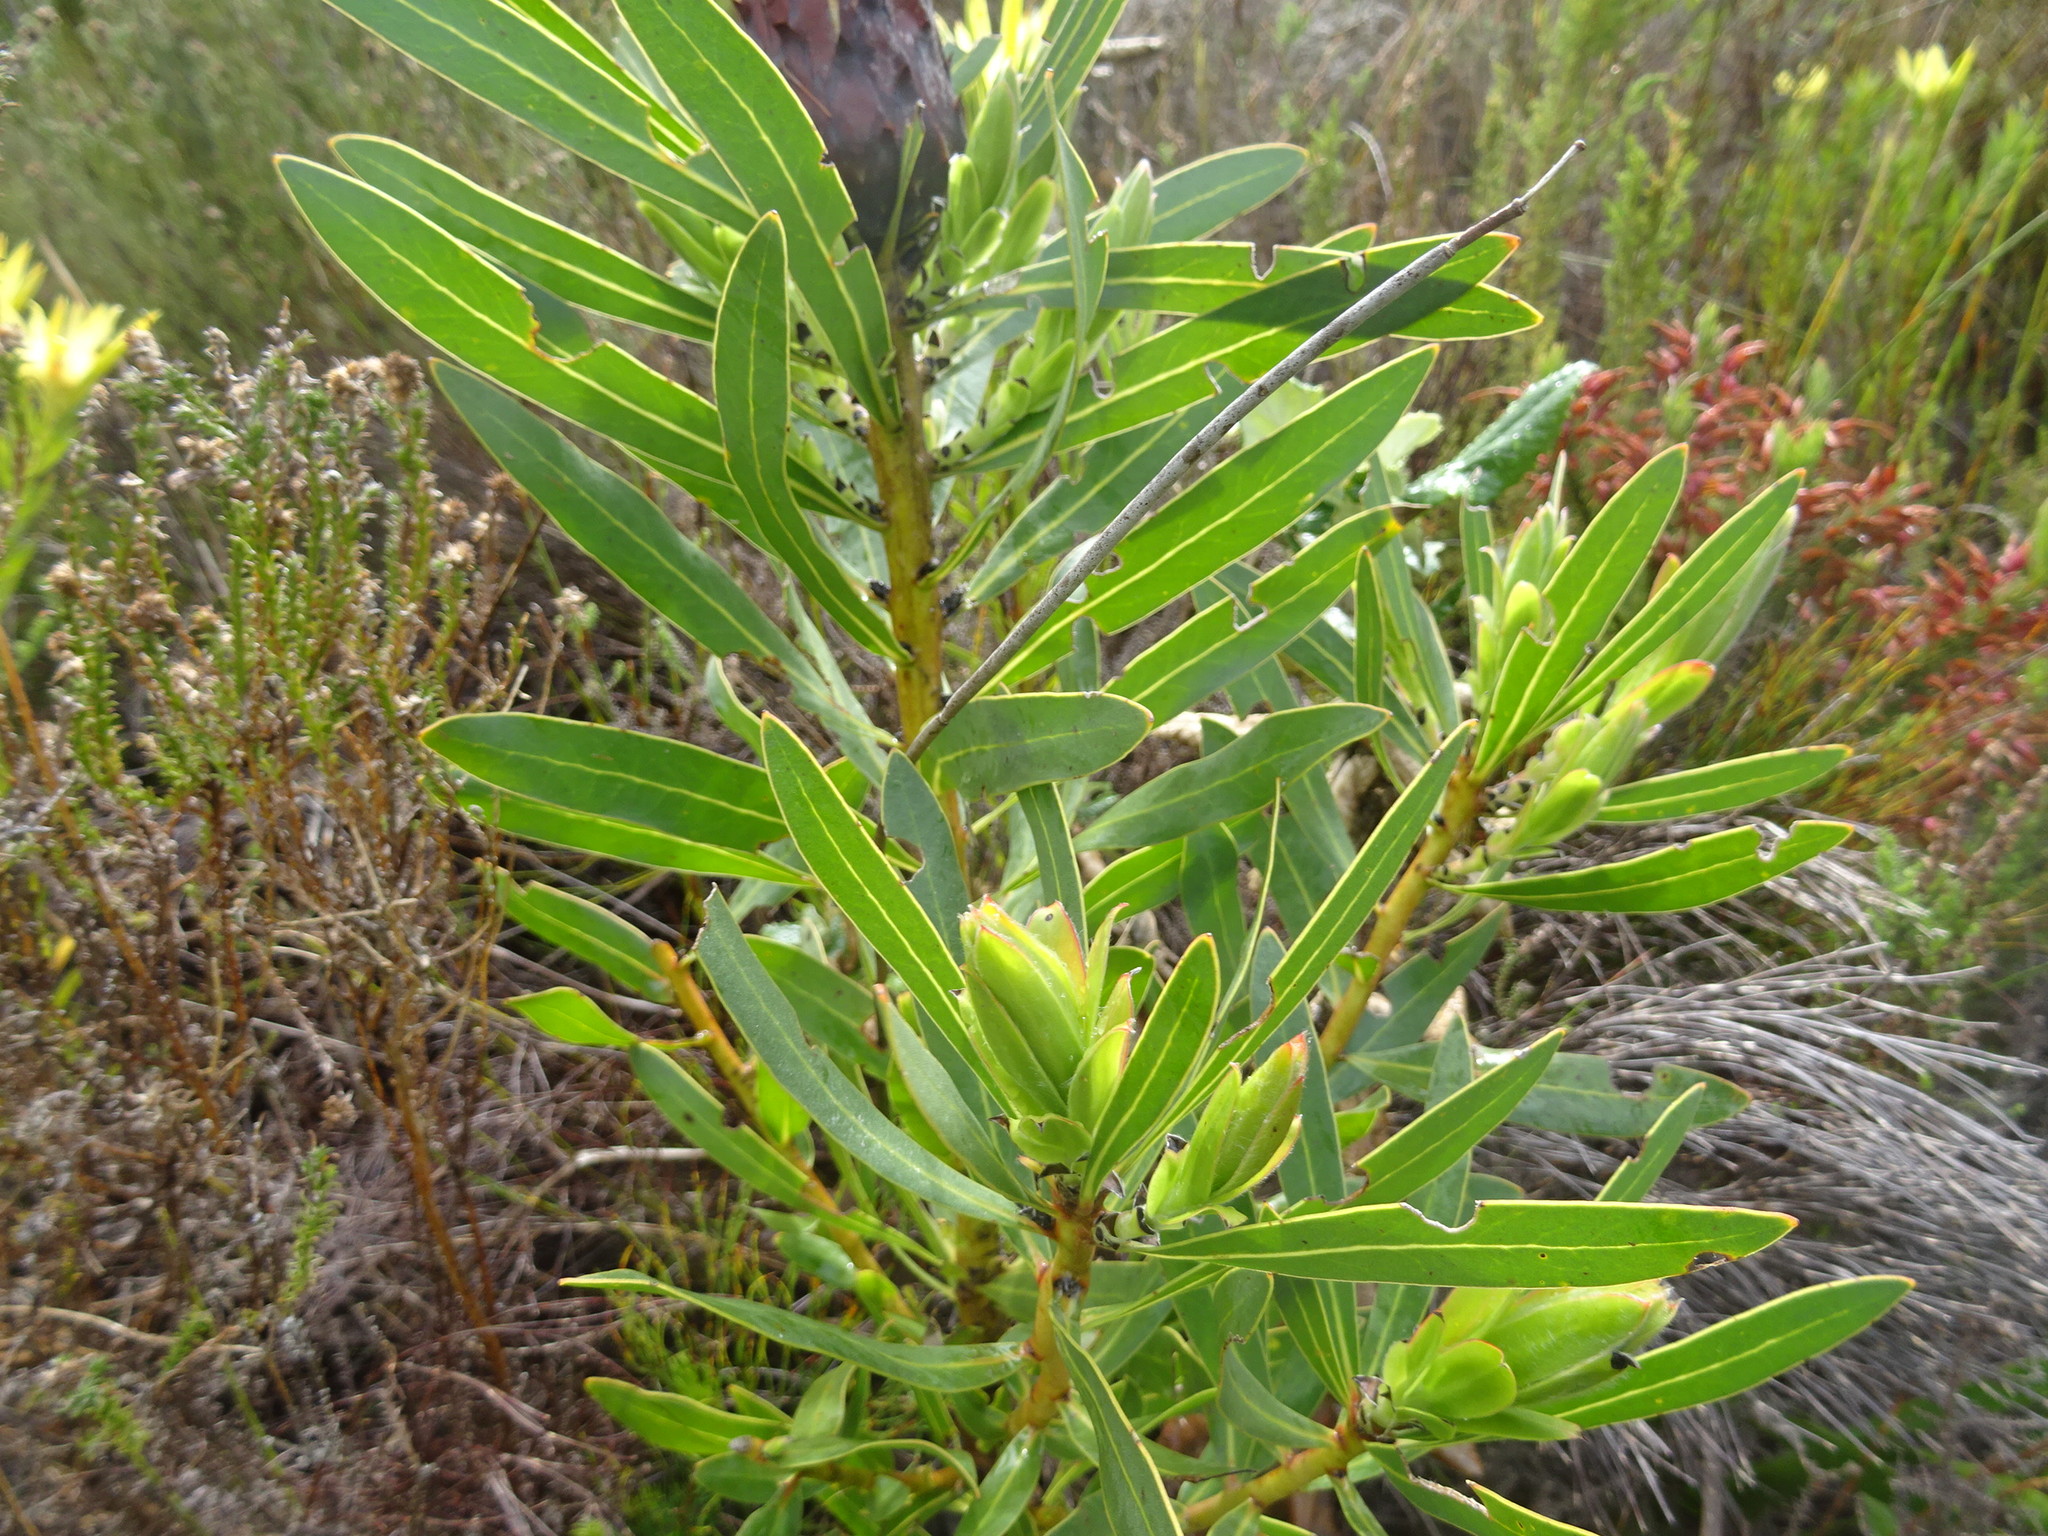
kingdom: Plantae
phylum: Tracheophyta
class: Magnoliopsida
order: Proteales
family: Proteaceae
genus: Protea
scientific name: Protea lepidocarpodendron
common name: Black-bearded protea
